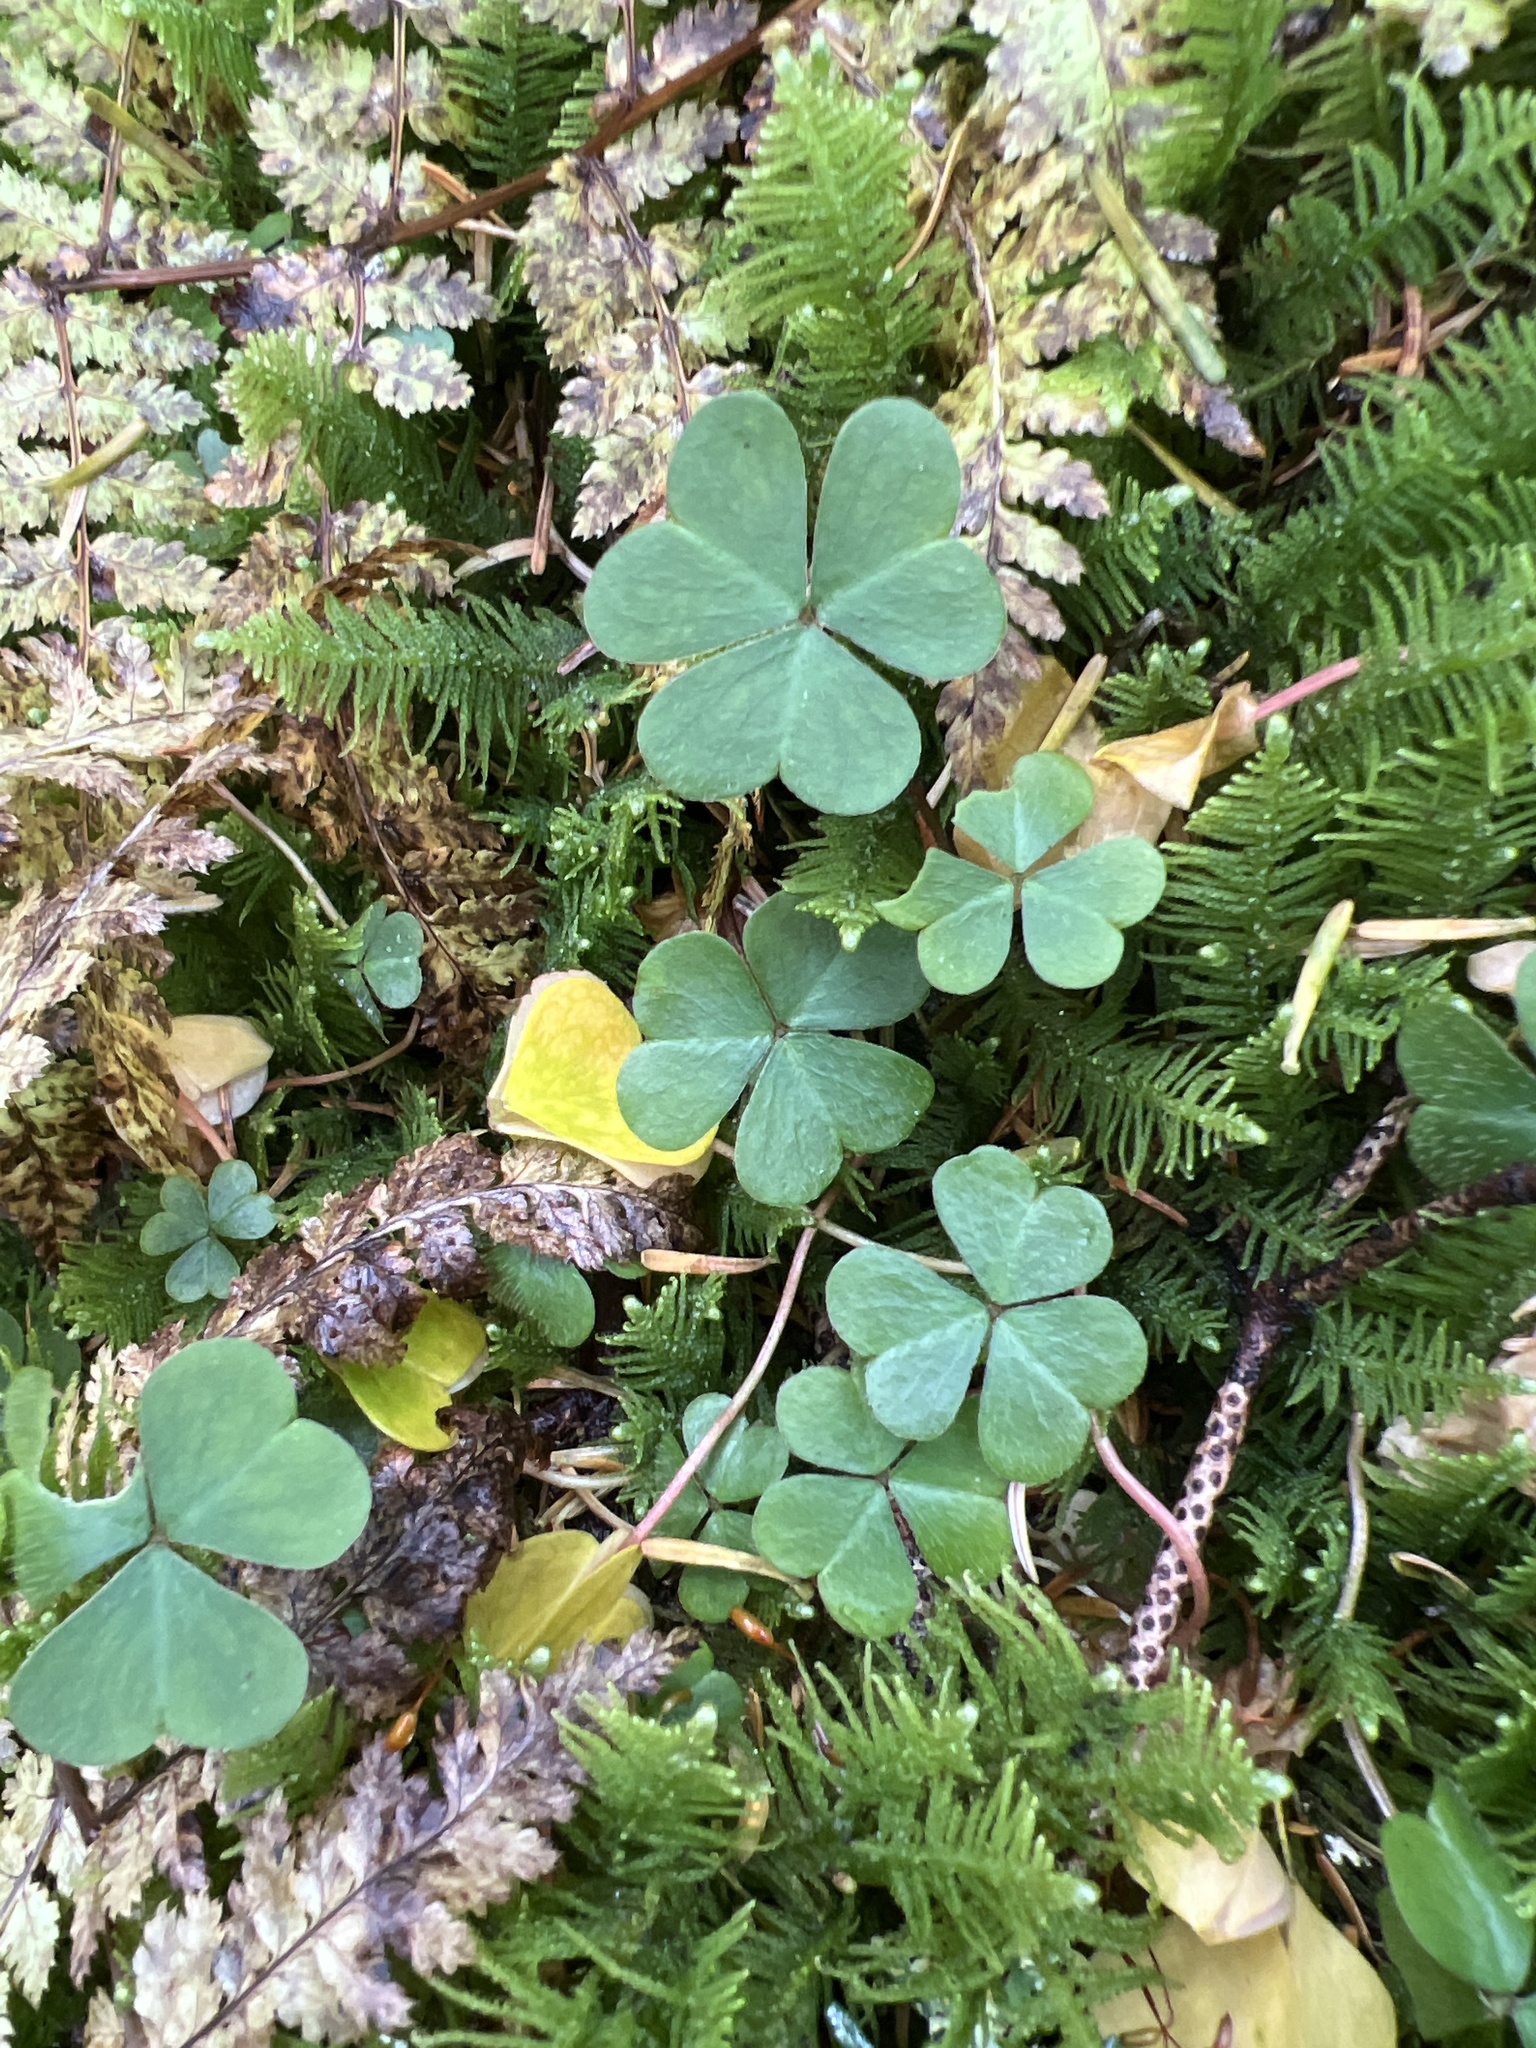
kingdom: Plantae
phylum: Tracheophyta
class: Magnoliopsida
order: Oxalidales
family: Oxalidaceae
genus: Oxalis
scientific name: Oxalis montana
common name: American wood-sorrel
